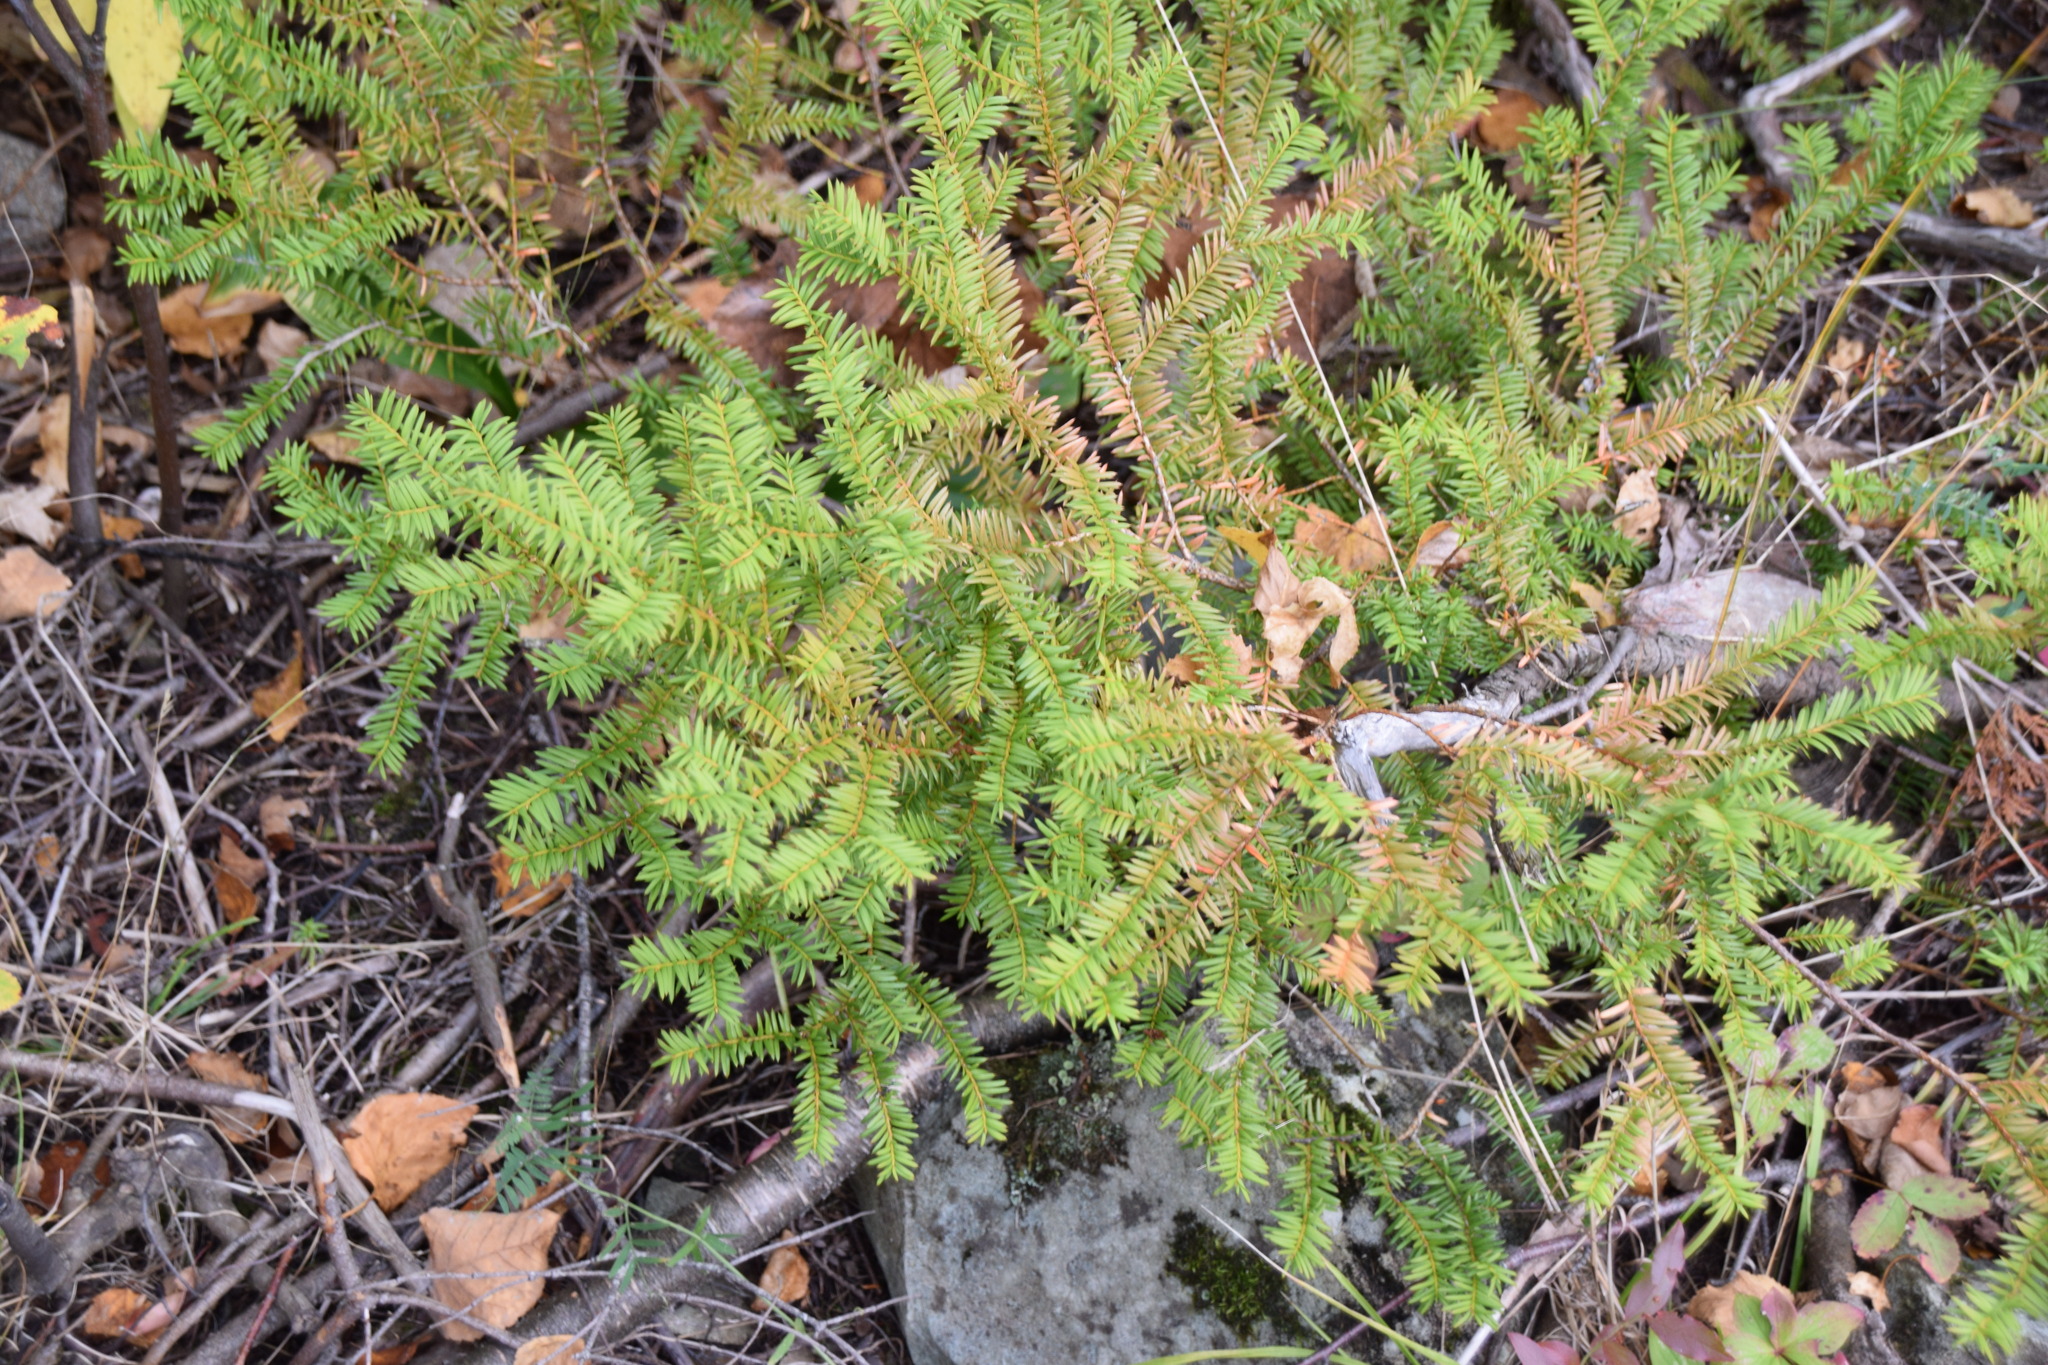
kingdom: Plantae
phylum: Tracheophyta
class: Pinopsida
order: Pinales
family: Taxaceae
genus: Taxus
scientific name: Taxus canadensis
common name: American yew
